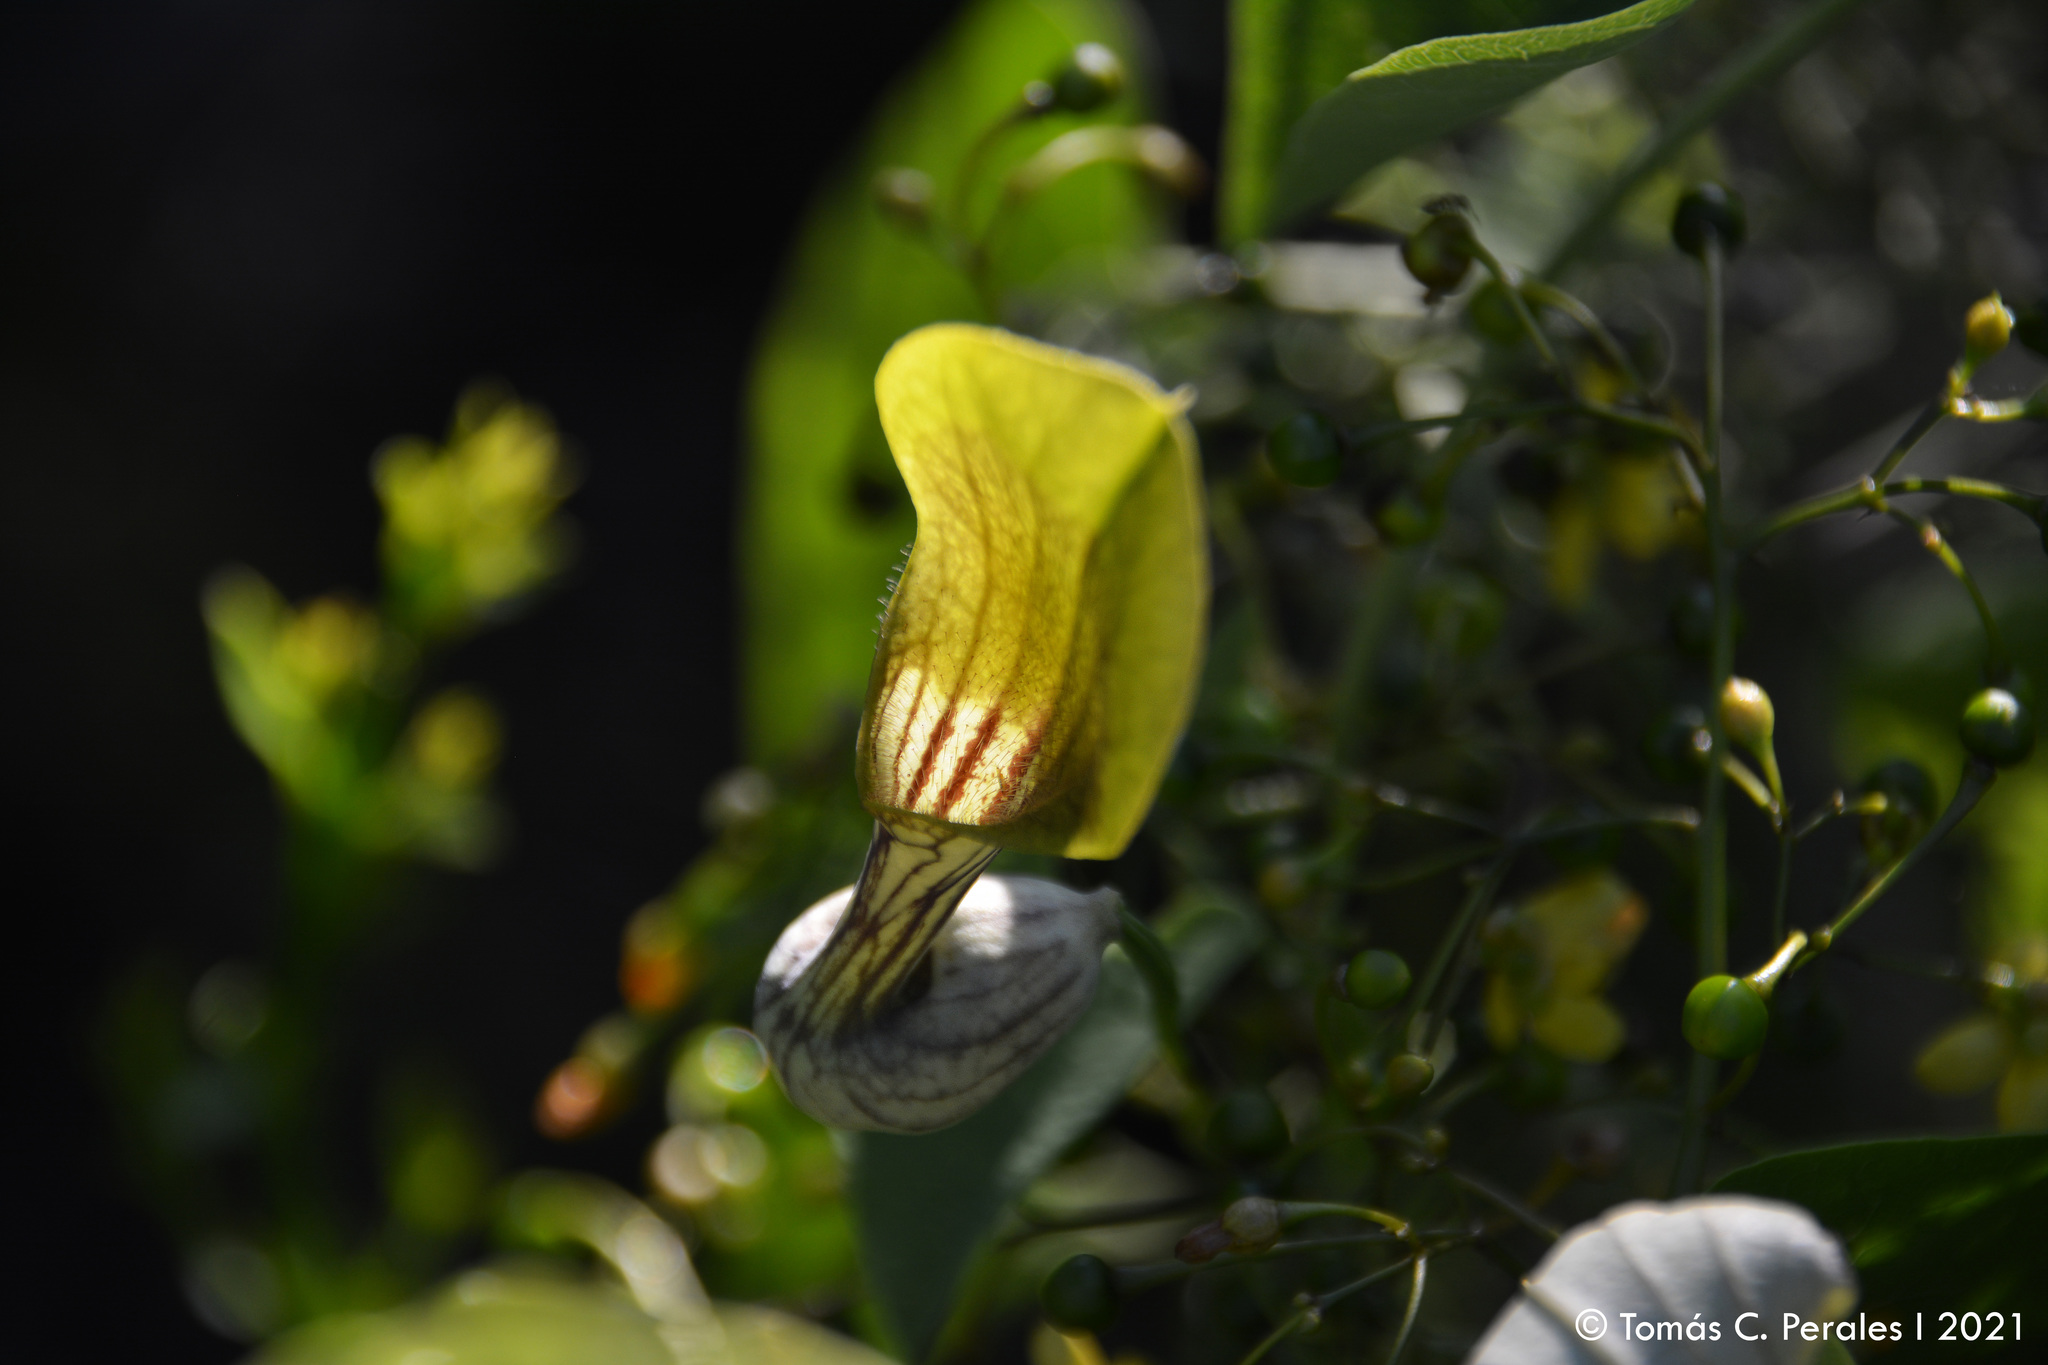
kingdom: Plantae
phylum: Tracheophyta
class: Magnoliopsida
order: Piperales
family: Aristolochiaceae
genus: Aristolochia
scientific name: Aristolochia argentina
